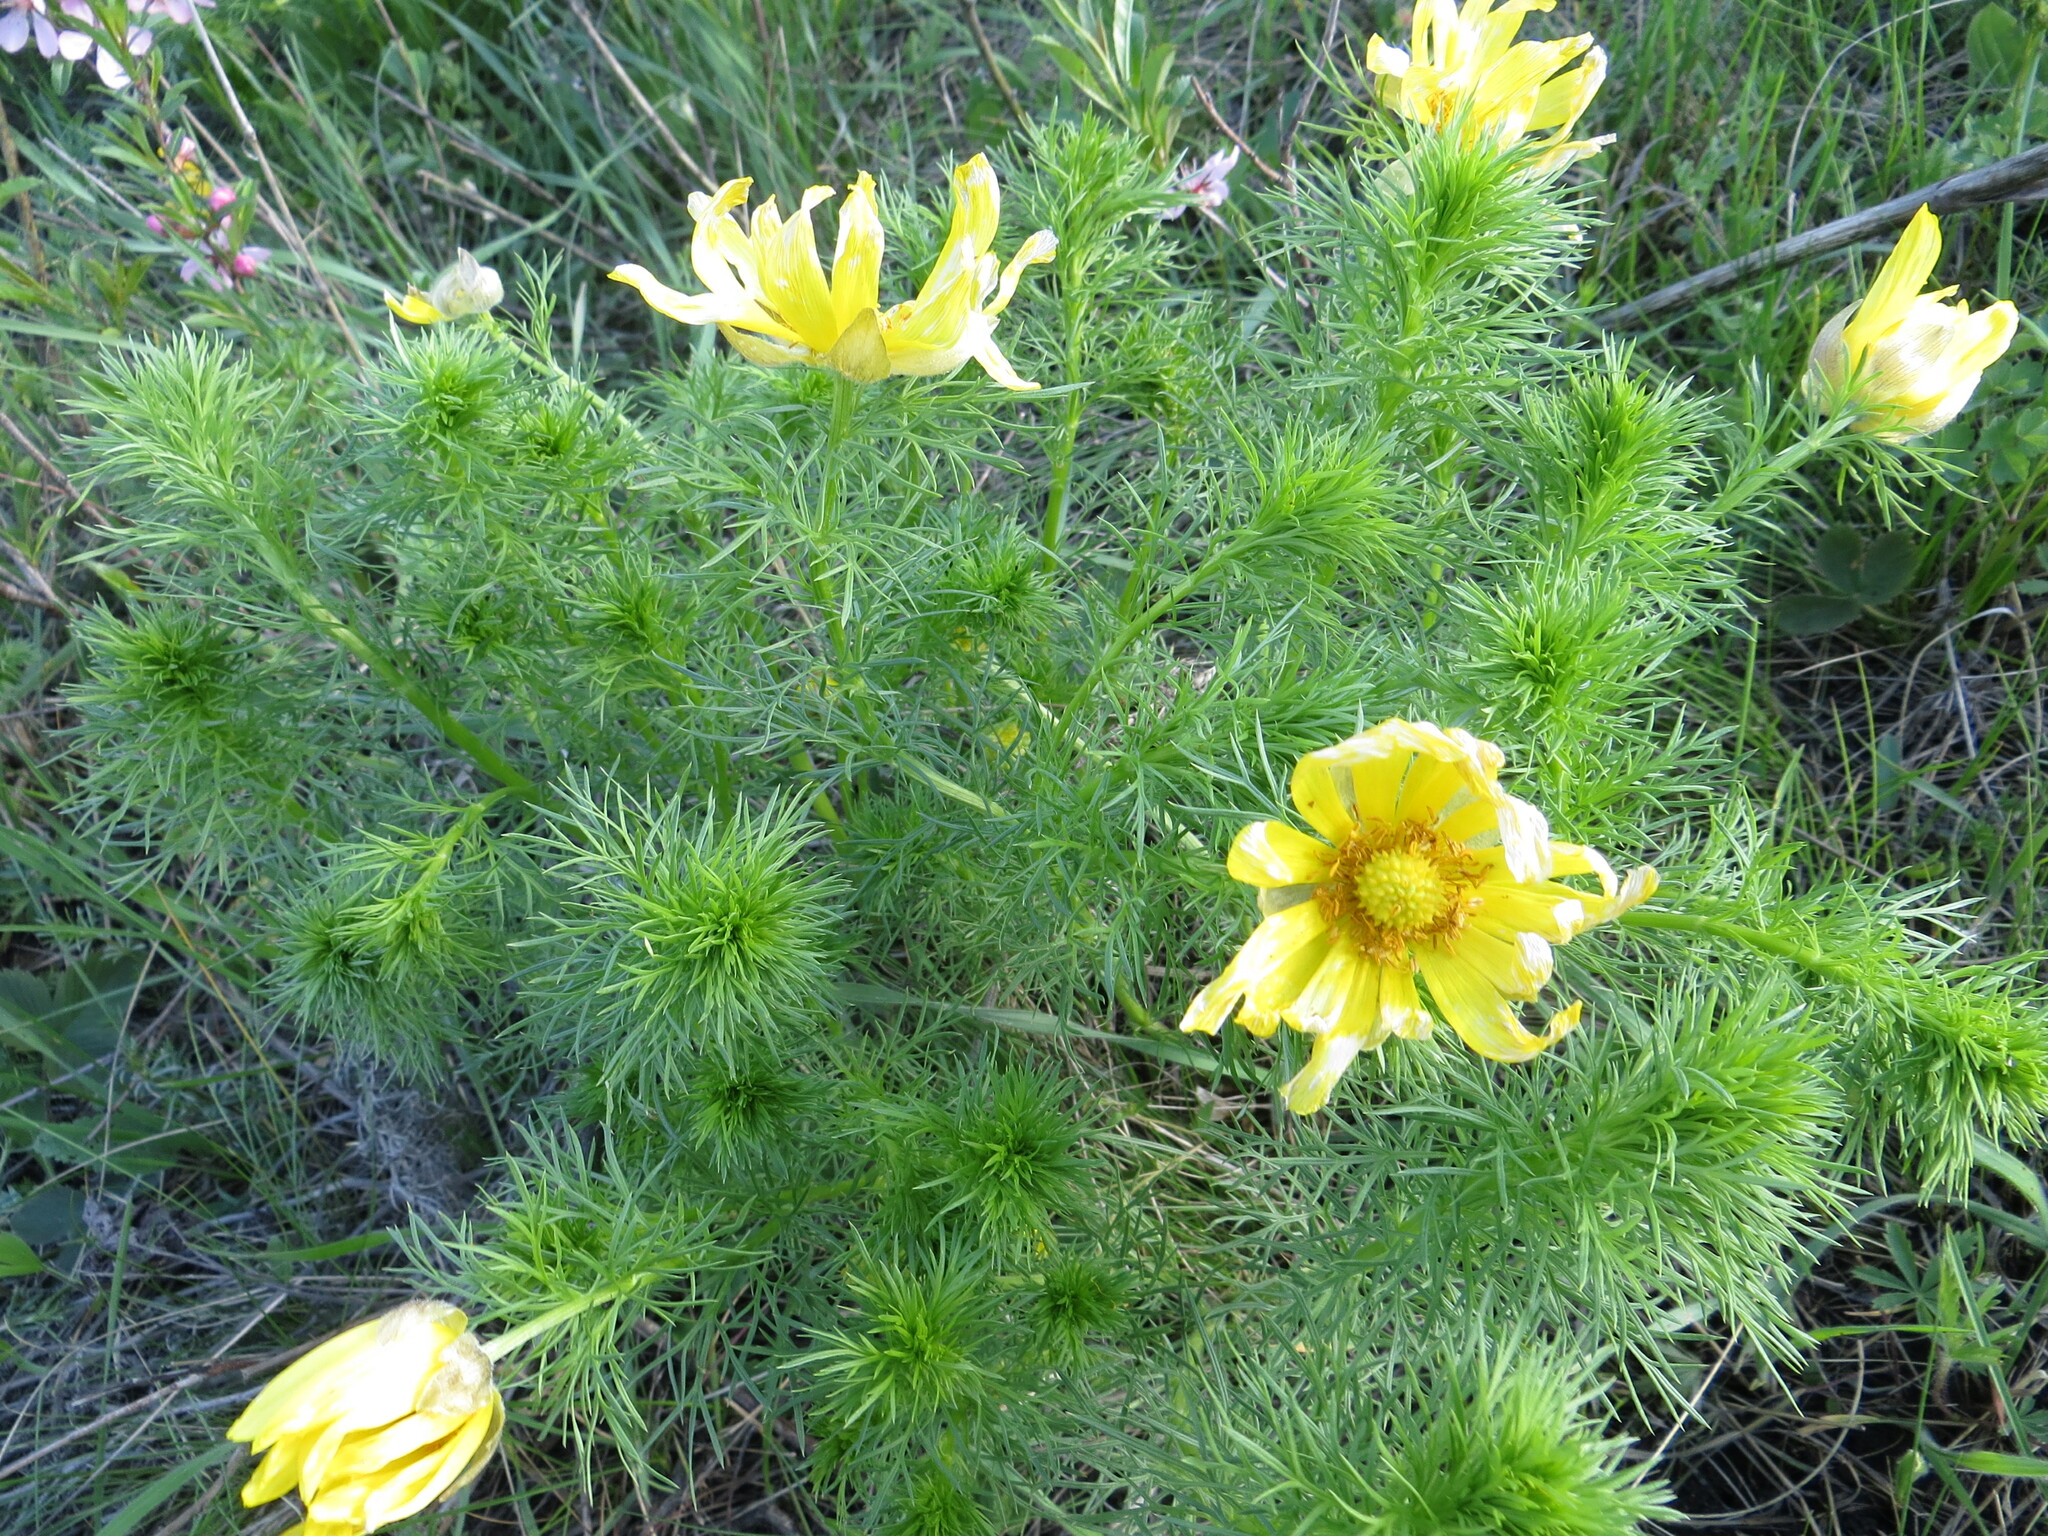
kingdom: Plantae
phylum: Tracheophyta
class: Magnoliopsida
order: Ranunculales
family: Ranunculaceae
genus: Adonis
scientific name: Adonis vernalis
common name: Yellow pheasants-eye
